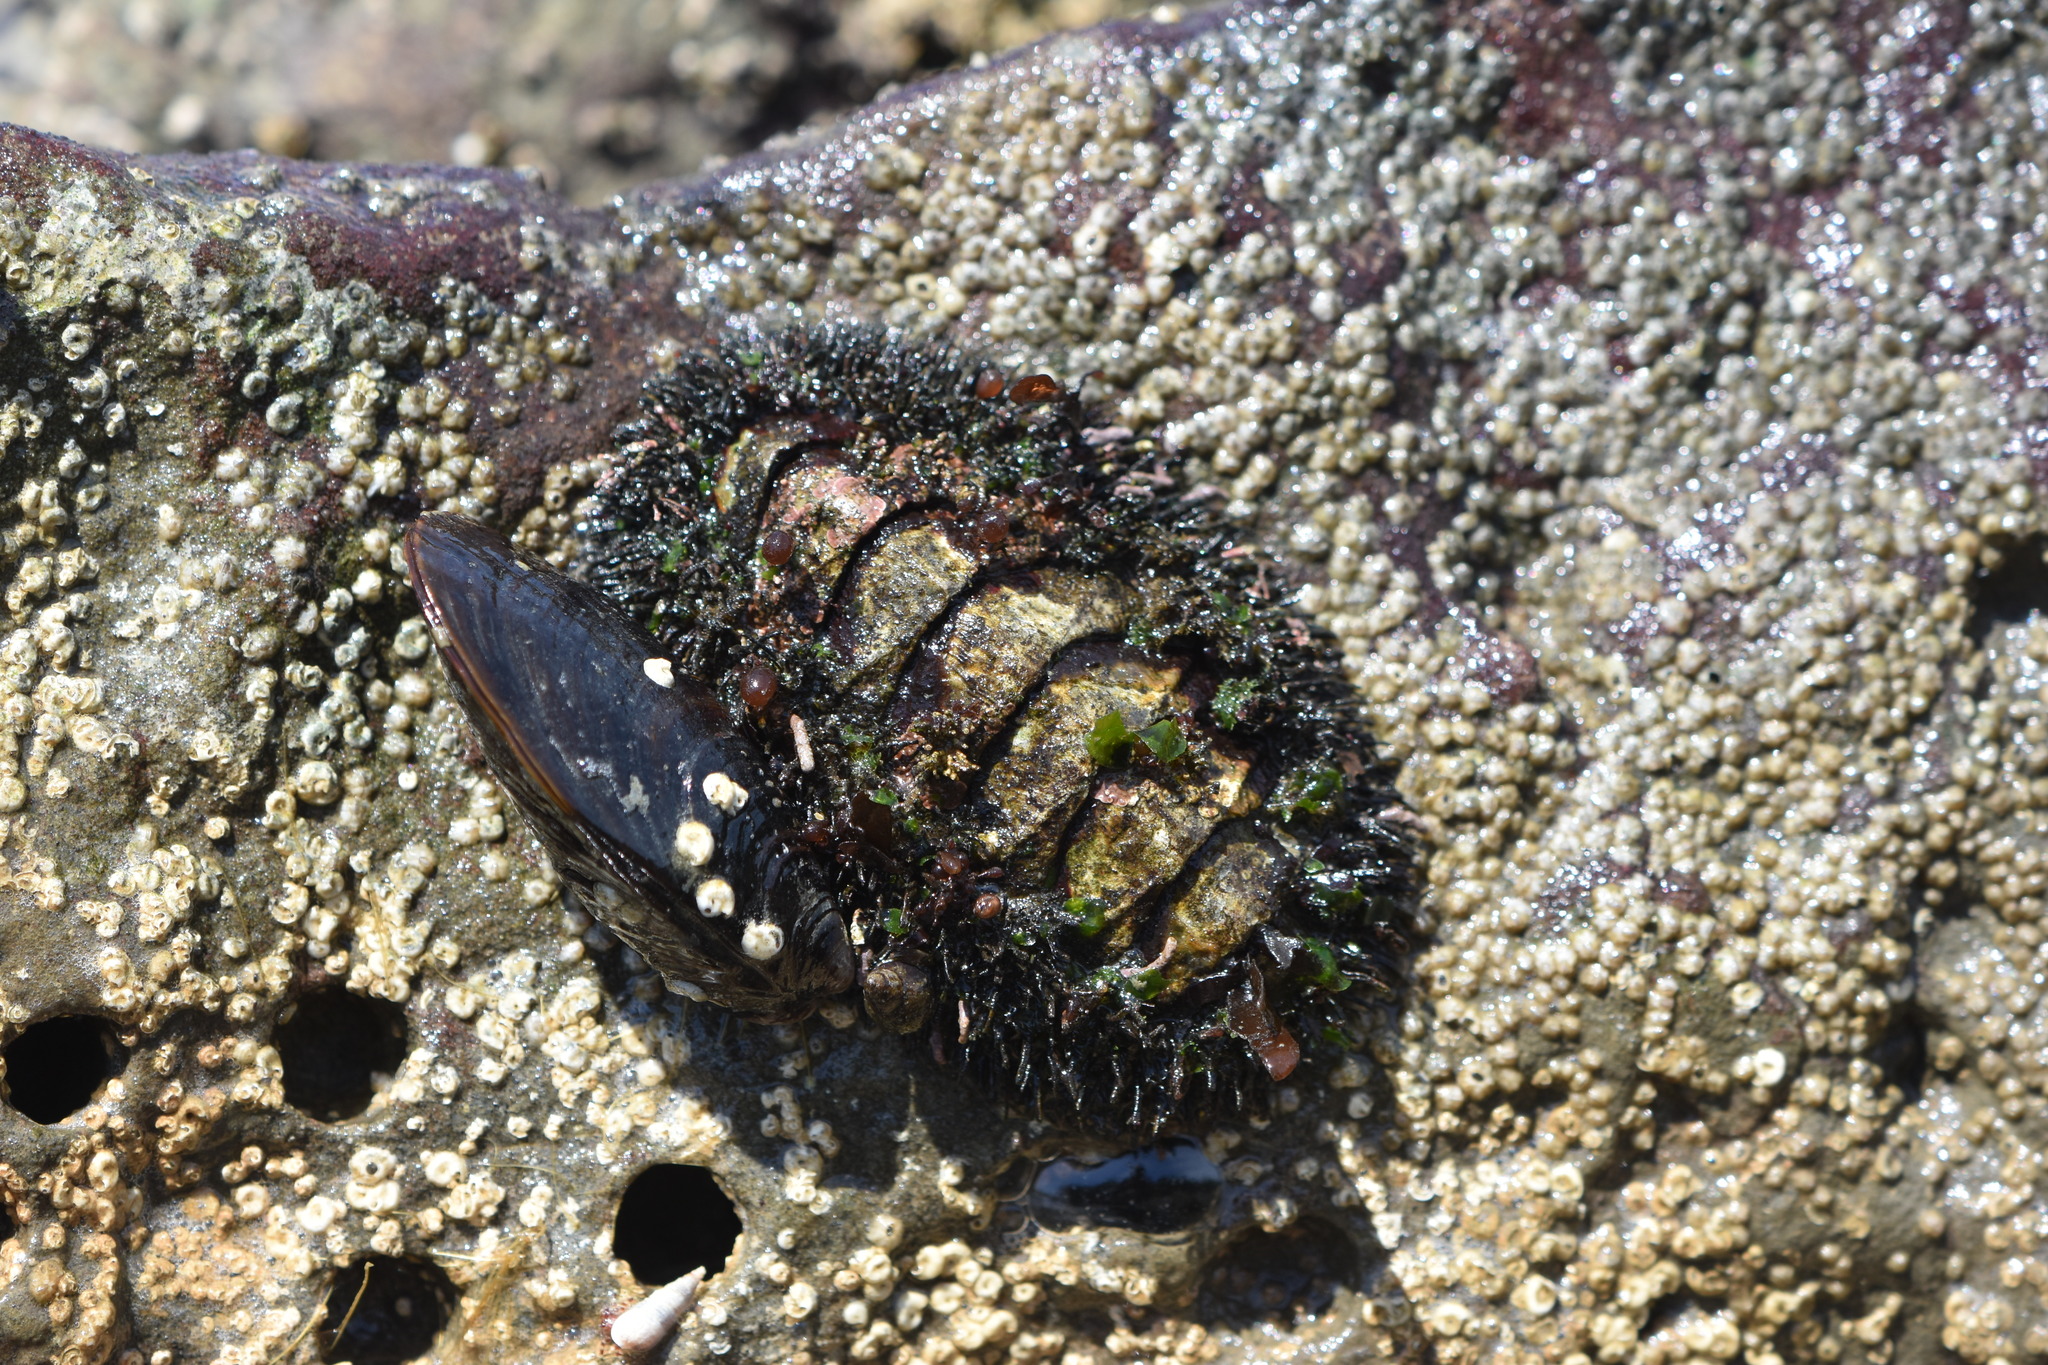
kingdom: Animalia
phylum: Mollusca
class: Polyplacophora
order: Chitonida
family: Mopaliidae
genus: Mopalia
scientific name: Mopalia muscosa
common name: Mossy chiton
